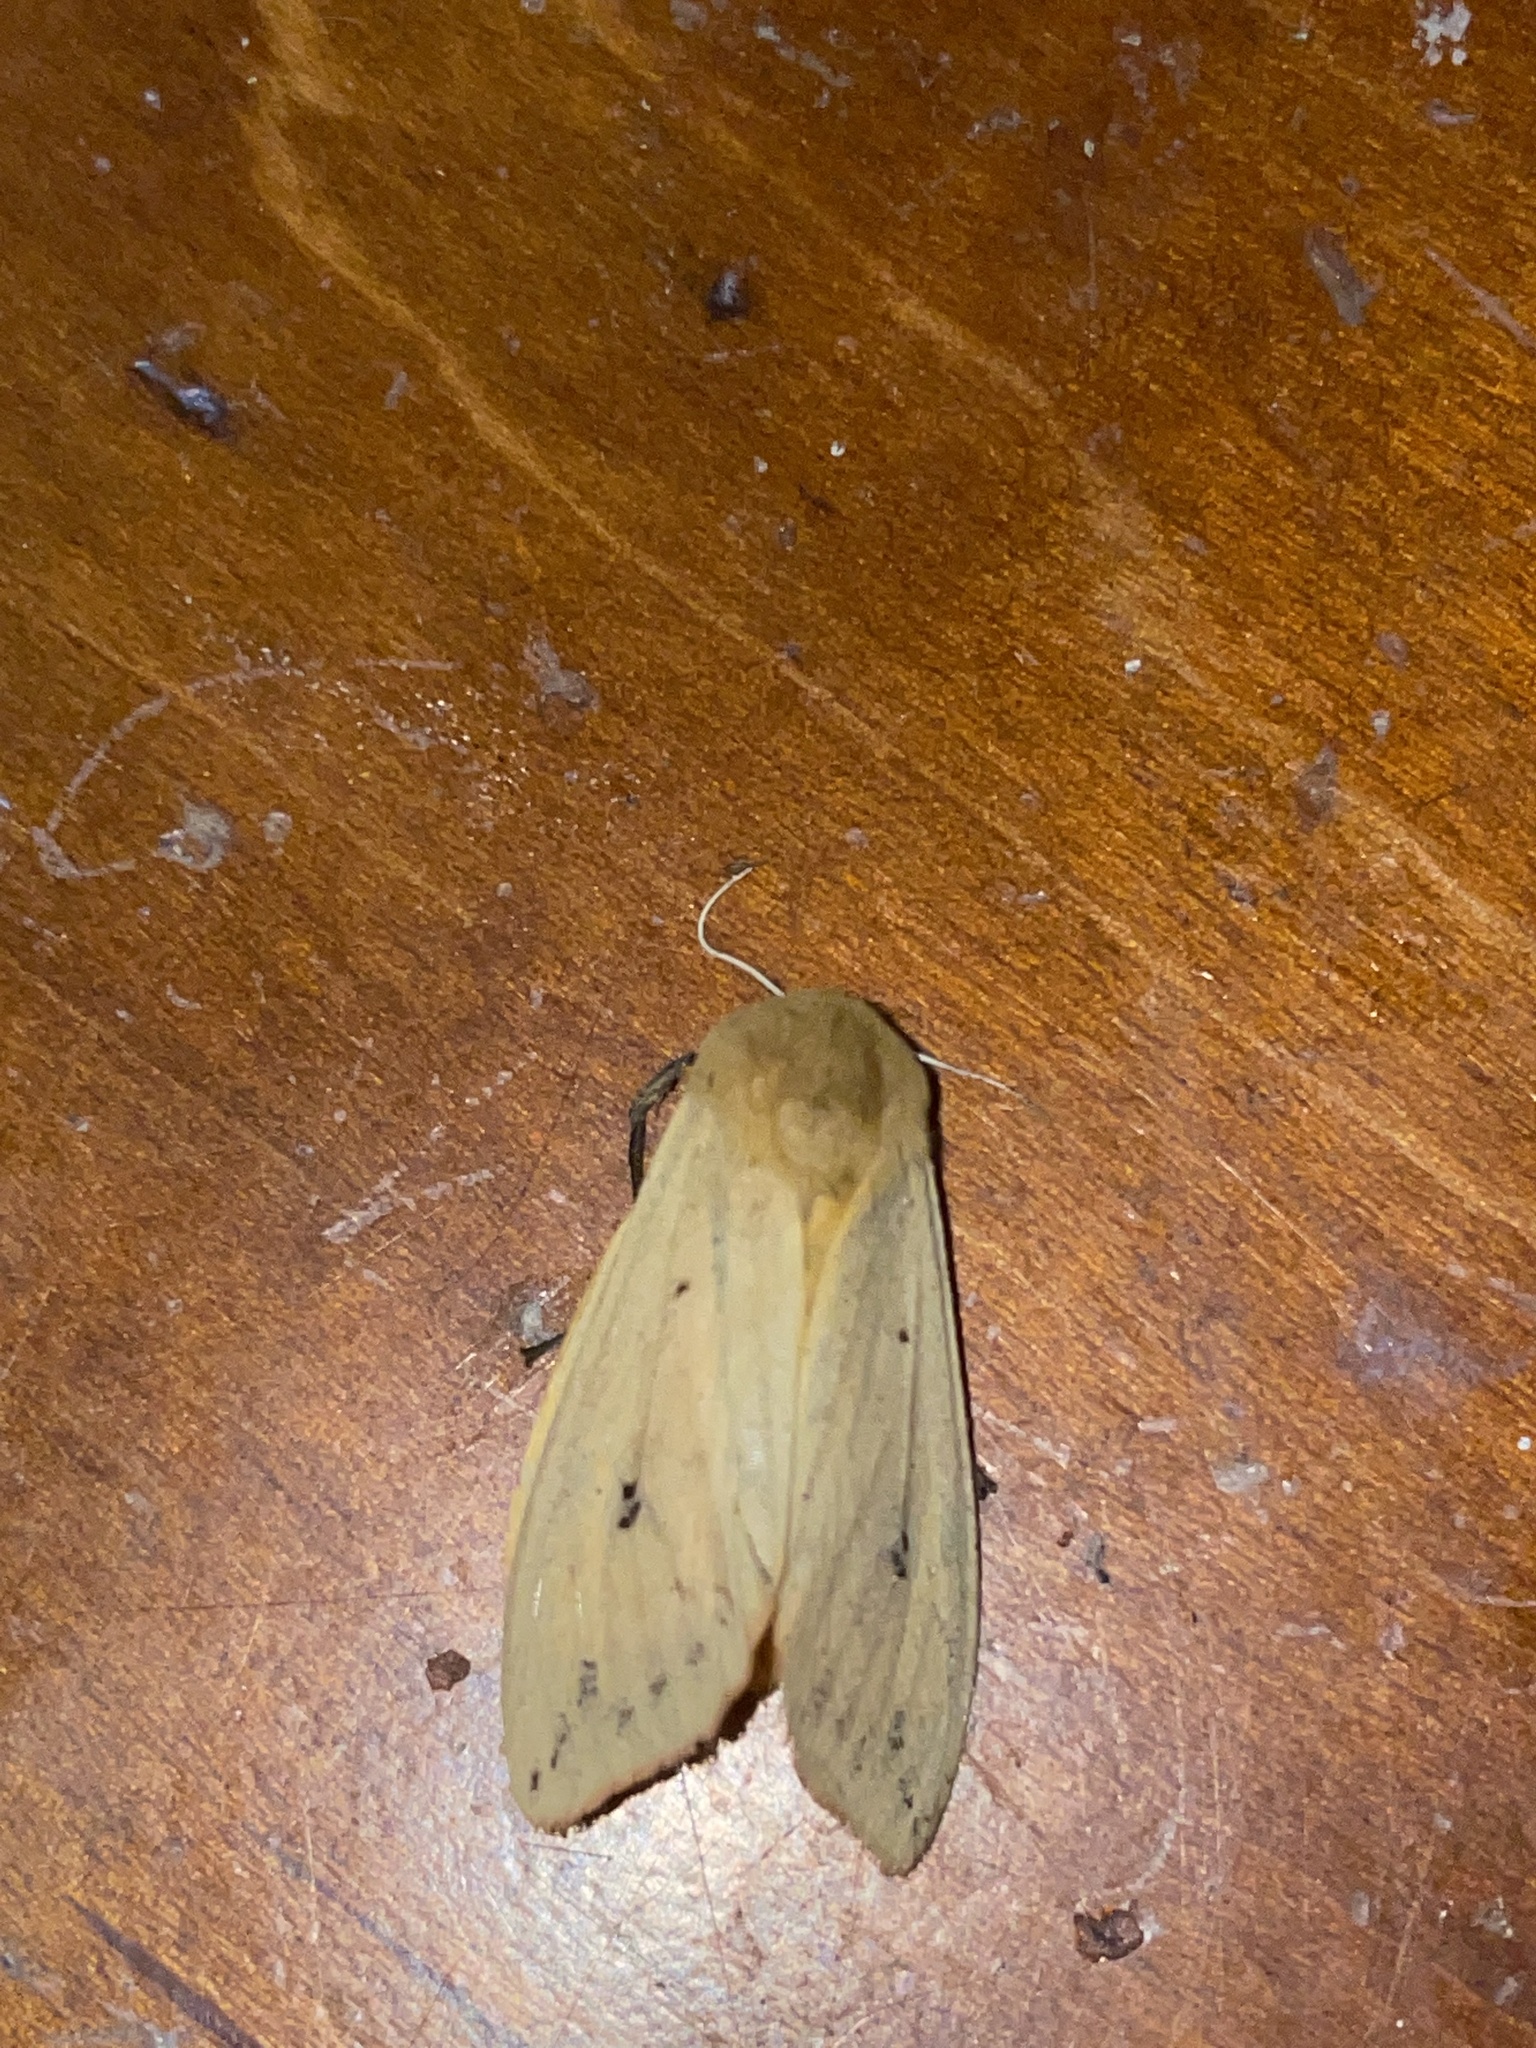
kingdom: Animalia
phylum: Arthropoda
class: Insecta
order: Lepidoptera
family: Erebidae
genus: Pyrrharctia
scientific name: Pyrrharctia isabella
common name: Isabella tiger moth
